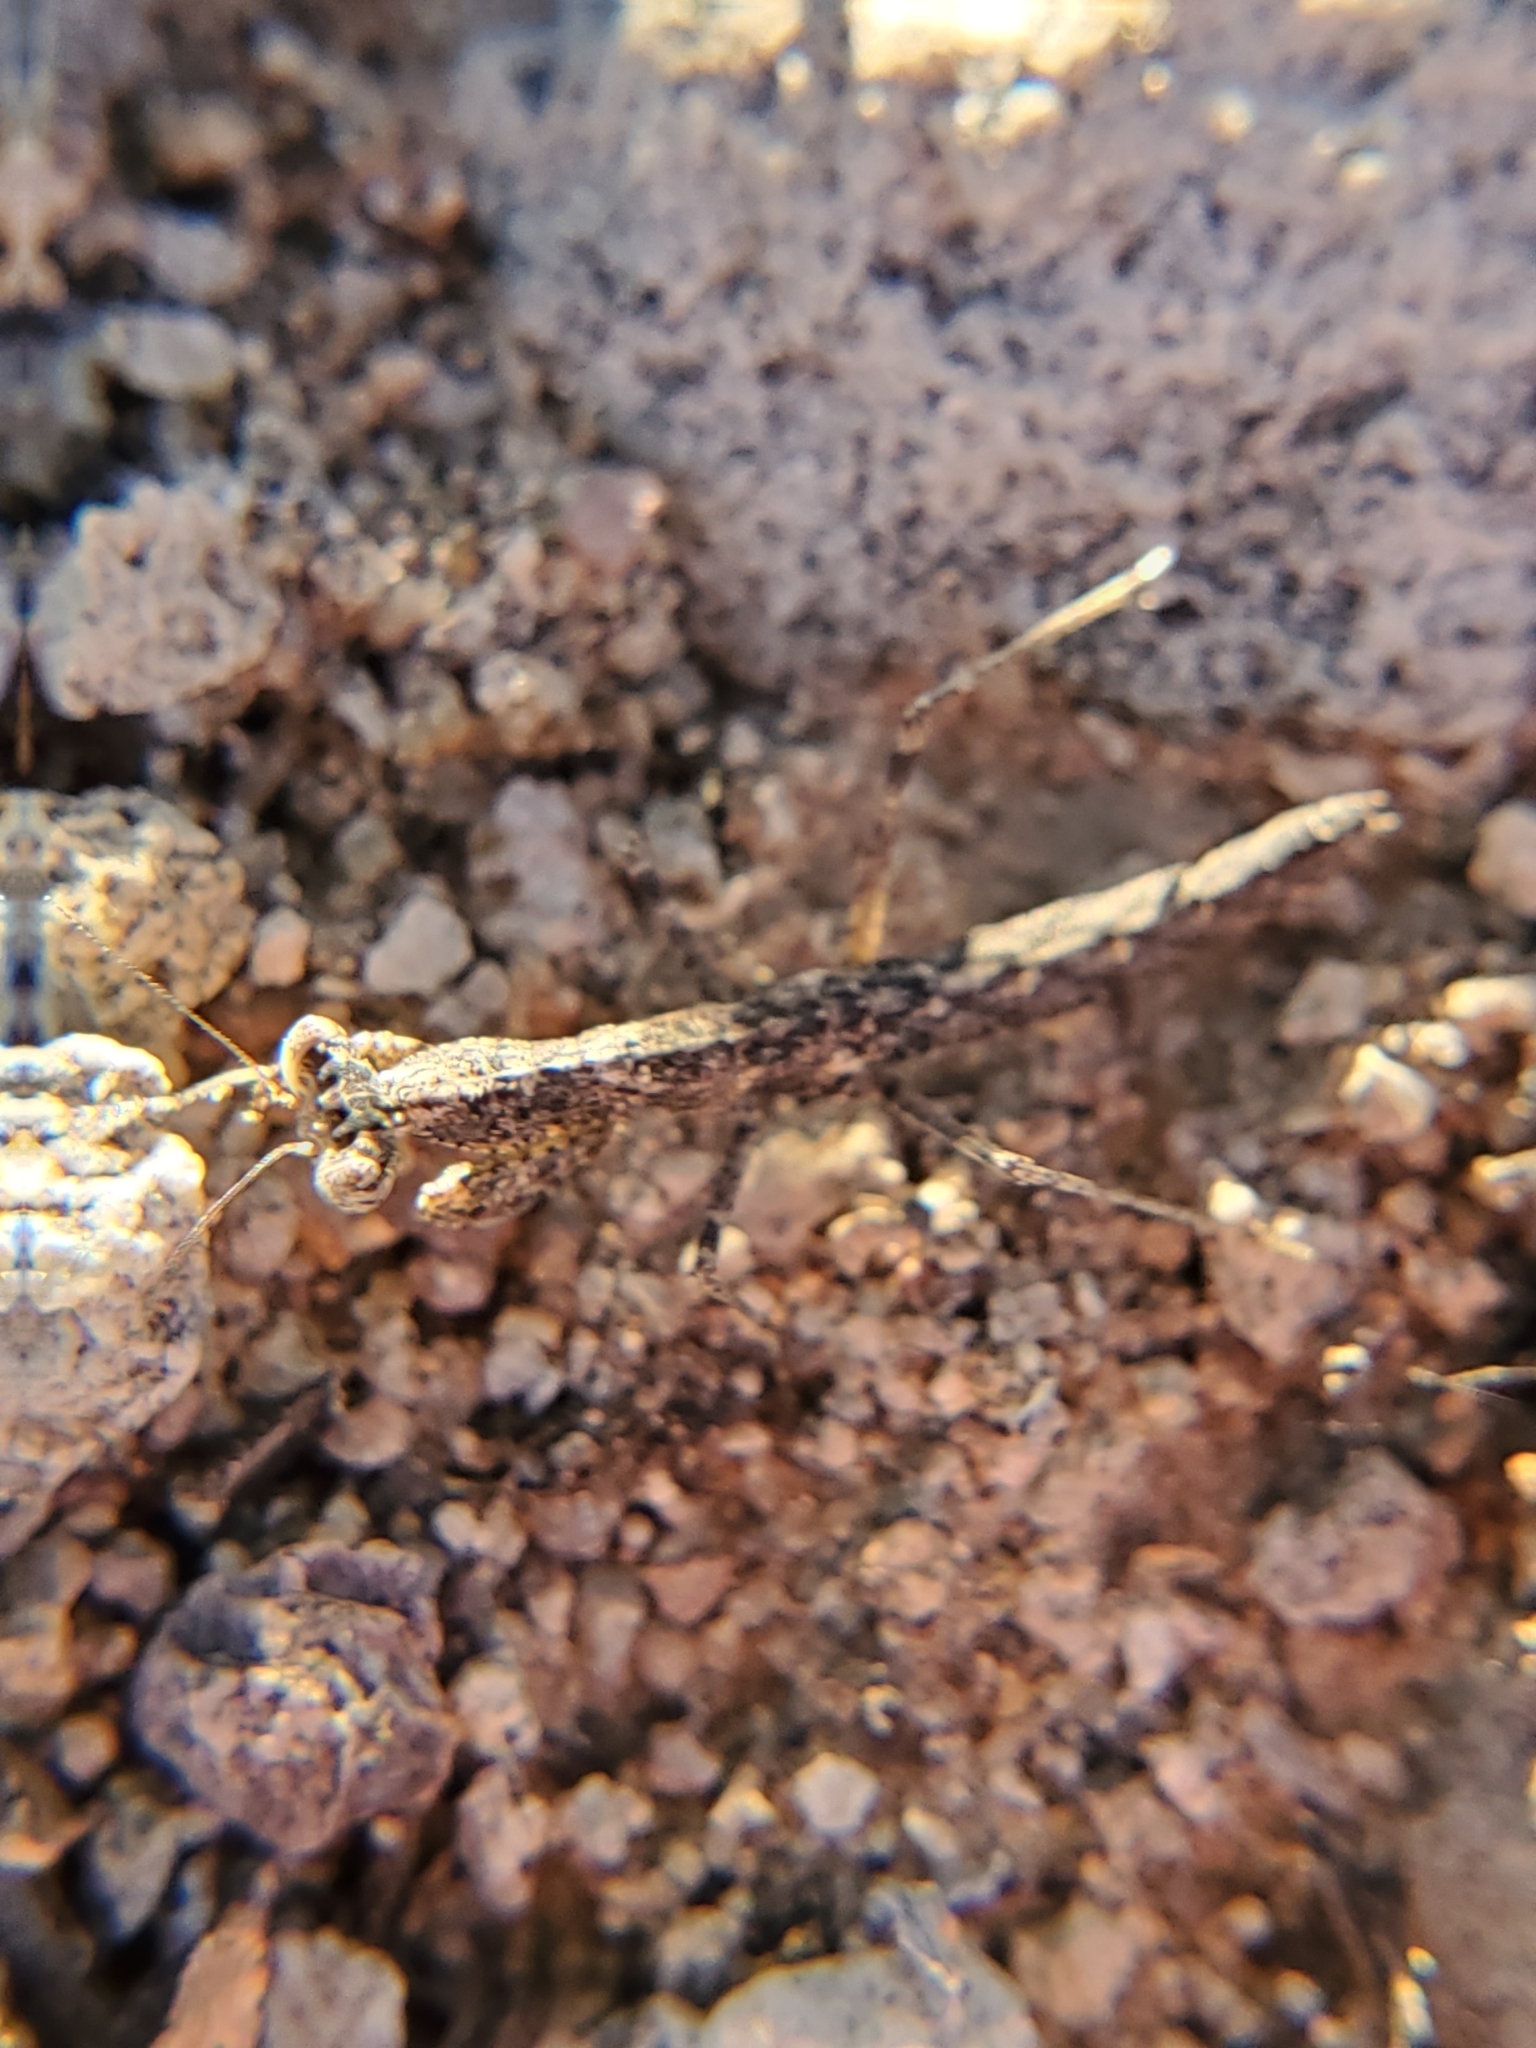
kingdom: Animalia
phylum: Arthropoda
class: Insecta
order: Mantodea
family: Amelidae
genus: Litaneutria
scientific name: Litaneutria ocularis
